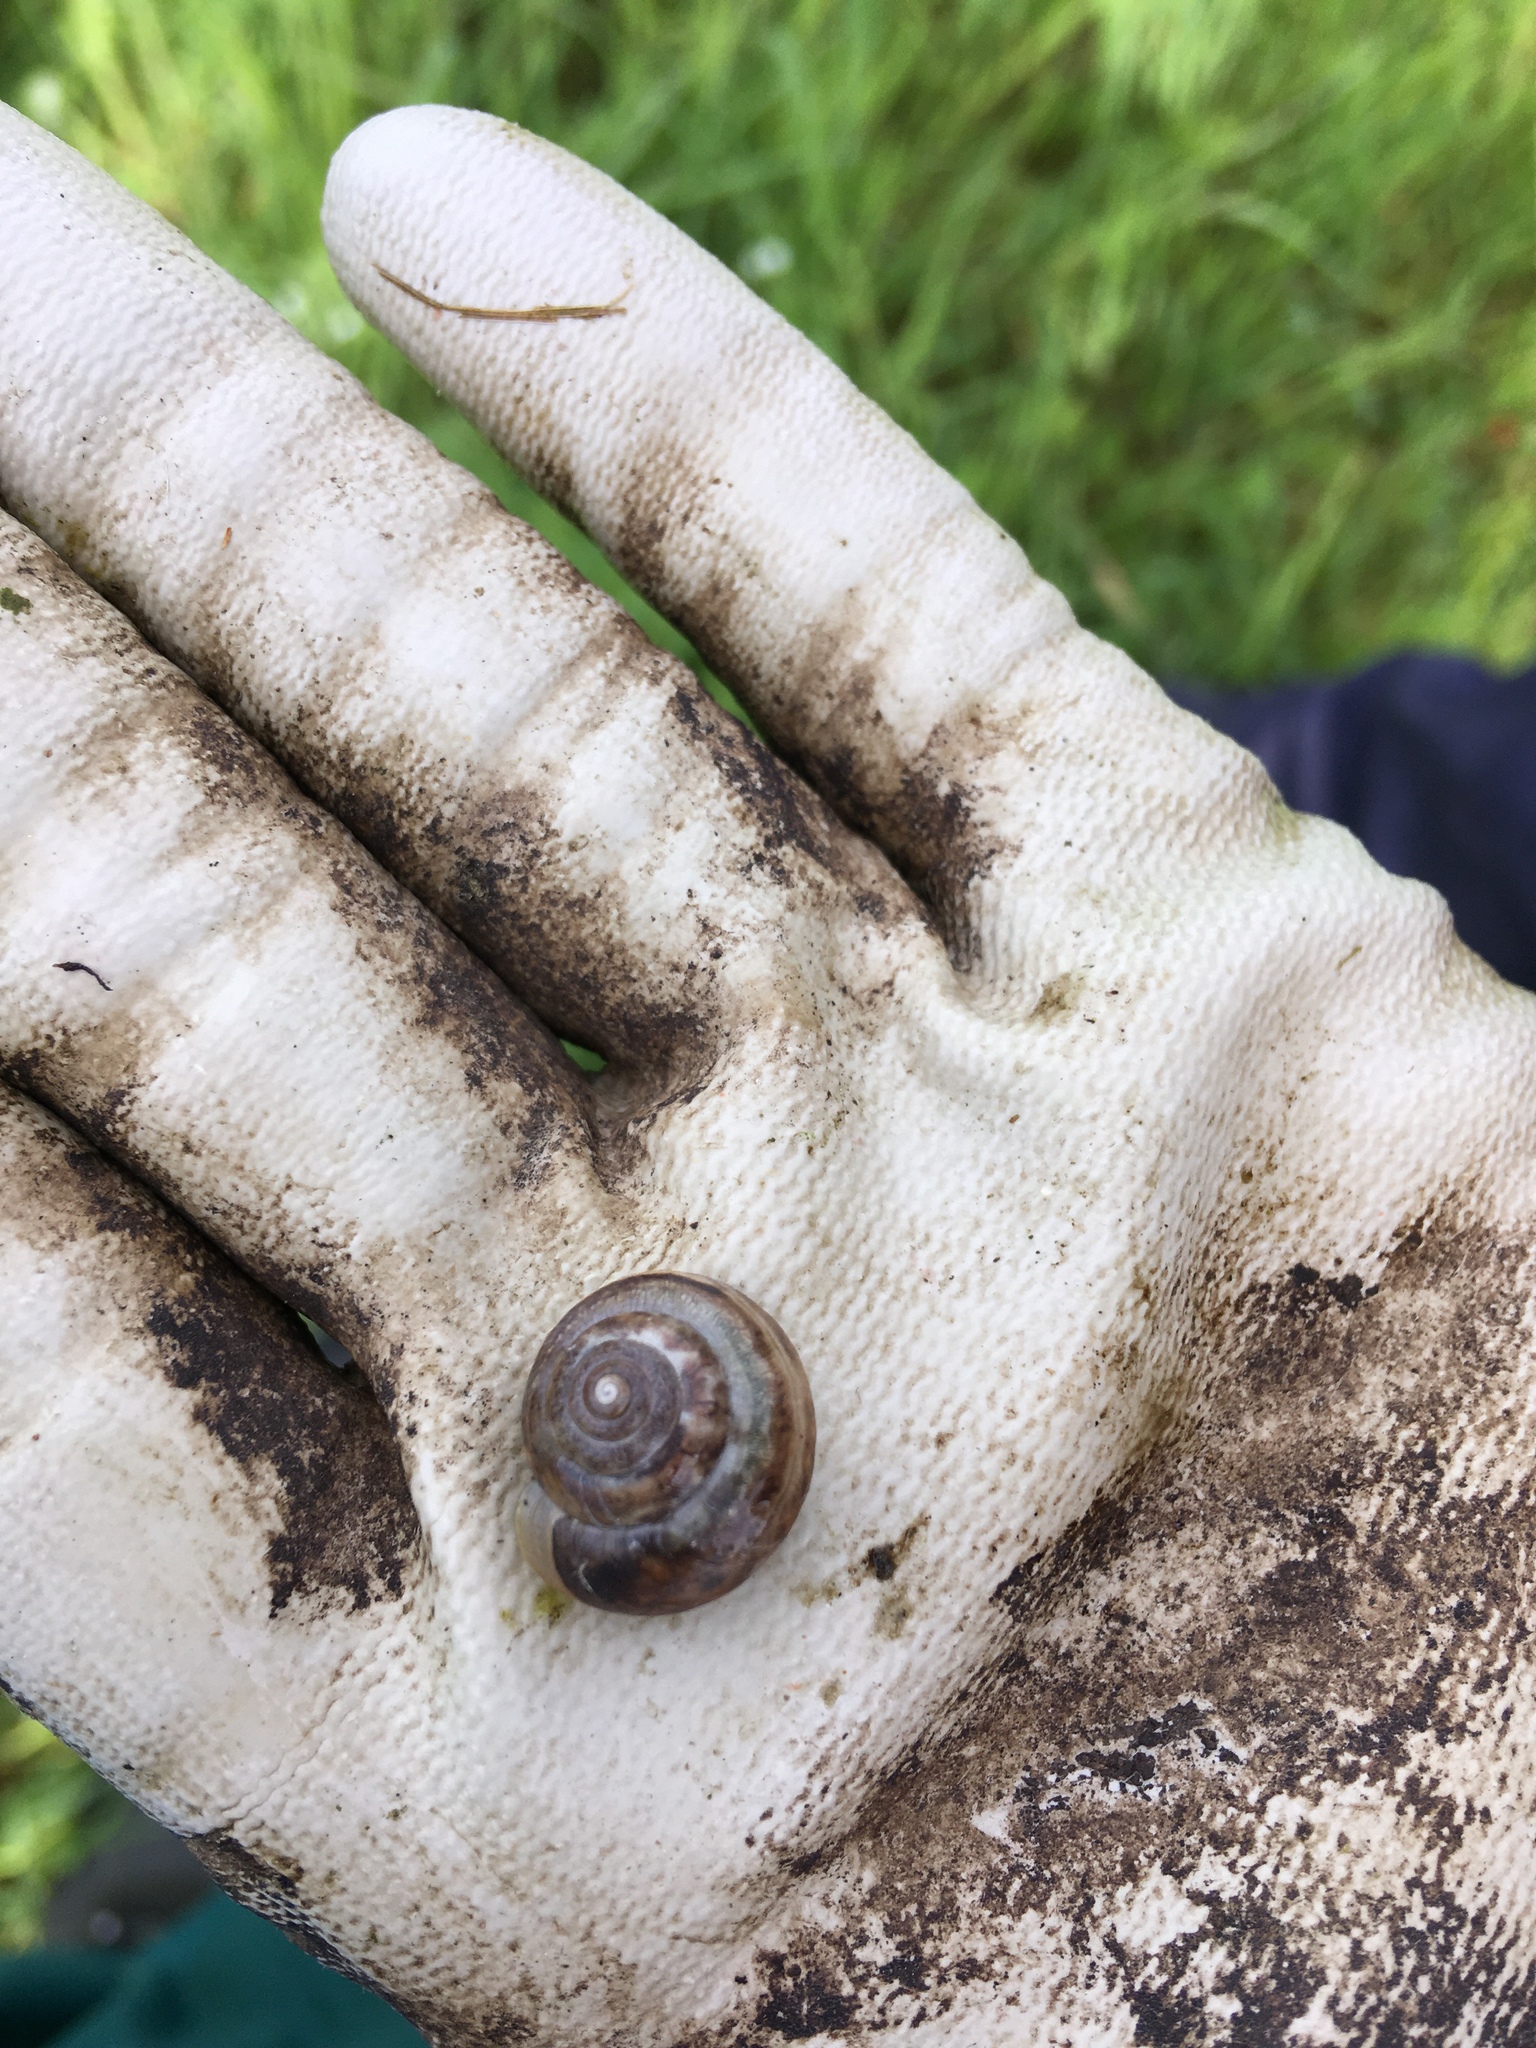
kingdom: Animalia
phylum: Mollusca
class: Gastropoda
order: Stylommatophora
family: Hygromiidae
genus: Monacha
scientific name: Monacha cantiana
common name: Kentish snail
